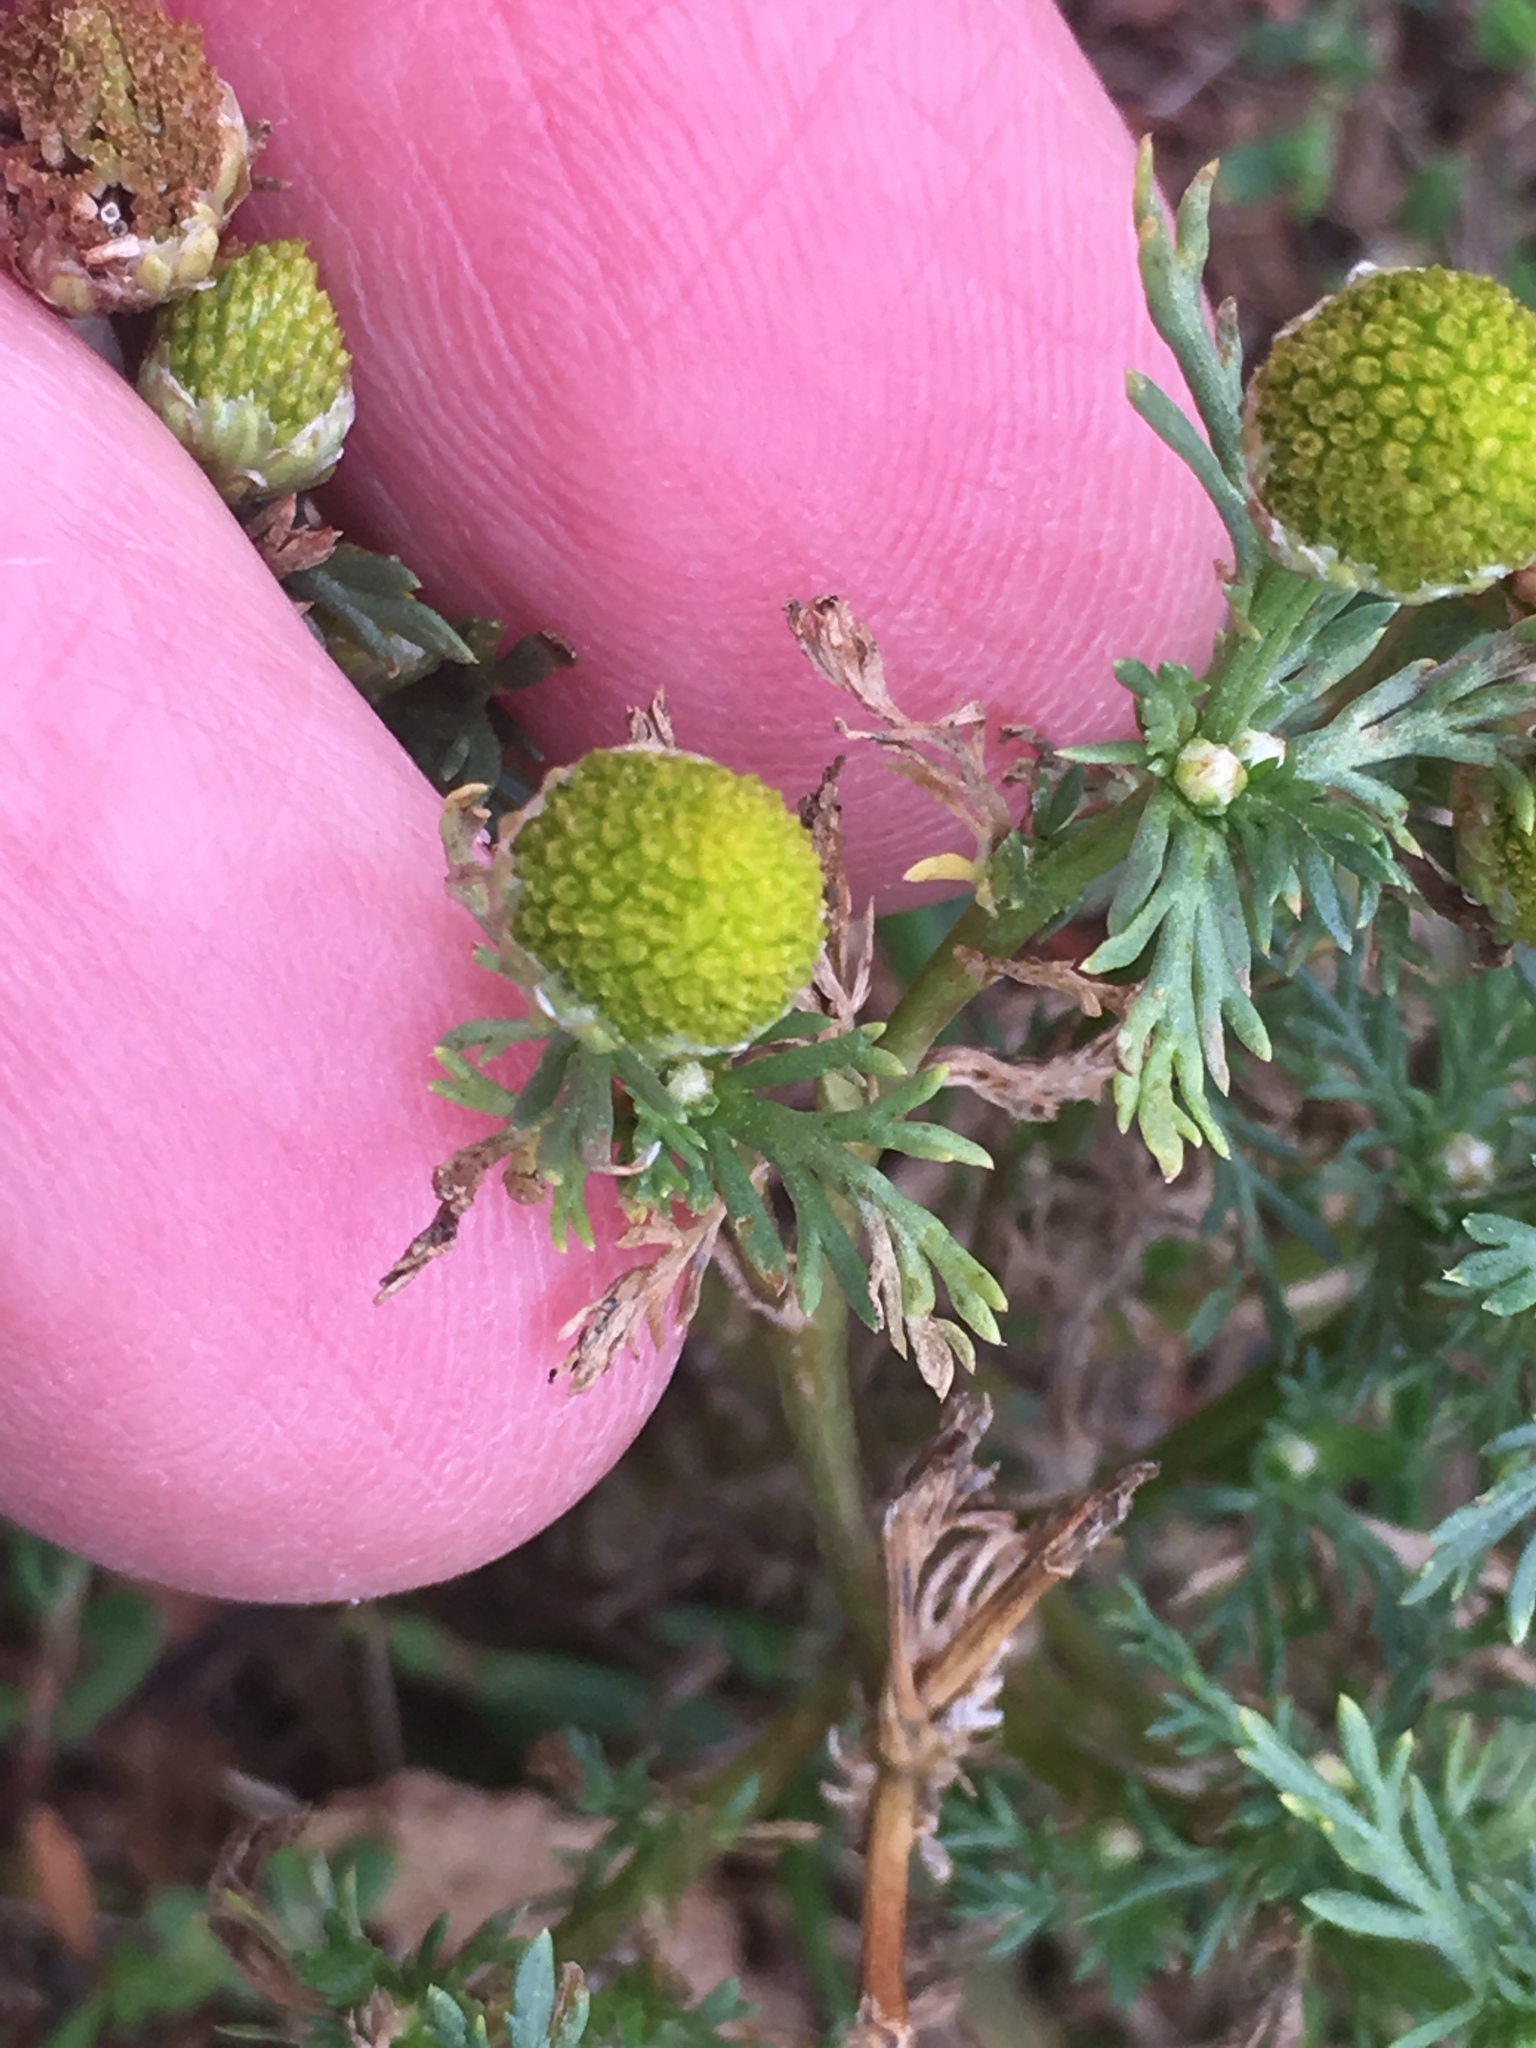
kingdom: Plantae
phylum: Tracheophyta
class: Magnoliopsida
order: Asterales
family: Asteraceae
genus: Matricaria
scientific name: Matricaria discoidea
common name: Disc mayweed
